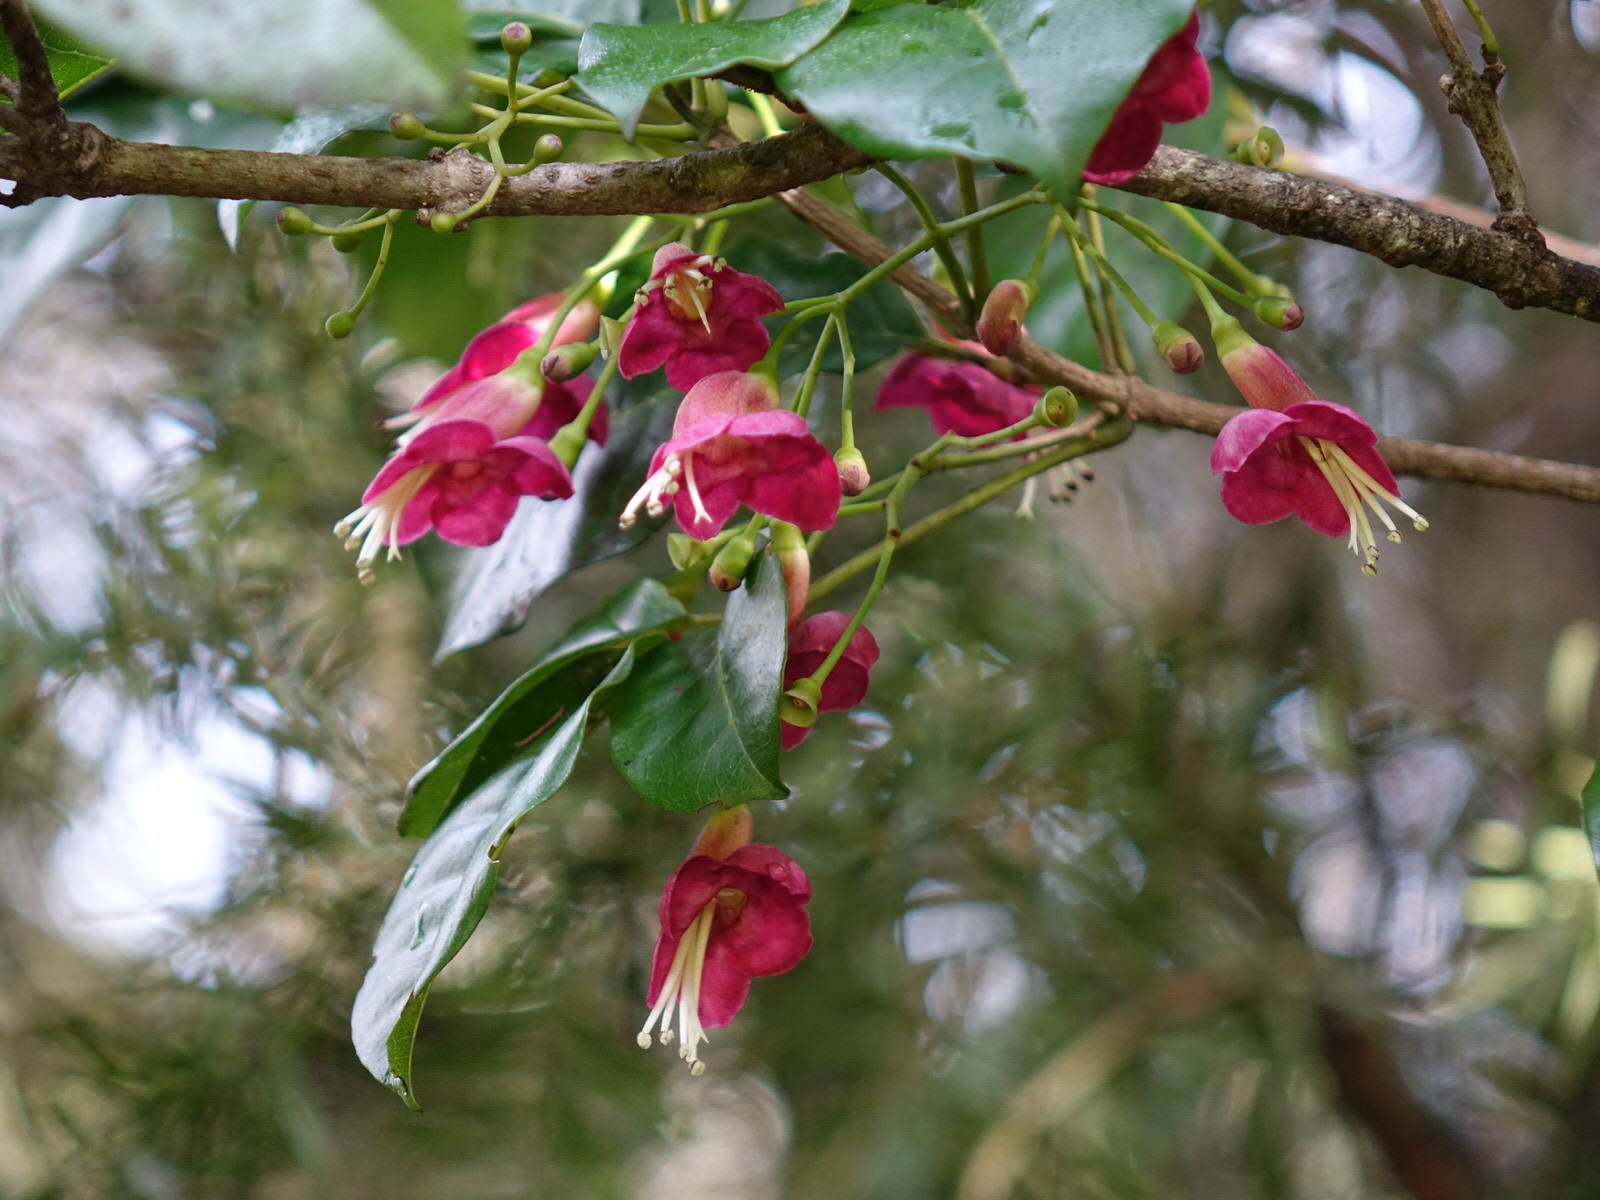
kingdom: Plantae
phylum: Tracheophyta
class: Magnoliopsida
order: Lamiales
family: Lamiaceae
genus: Vitex
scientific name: Vitex lucens
